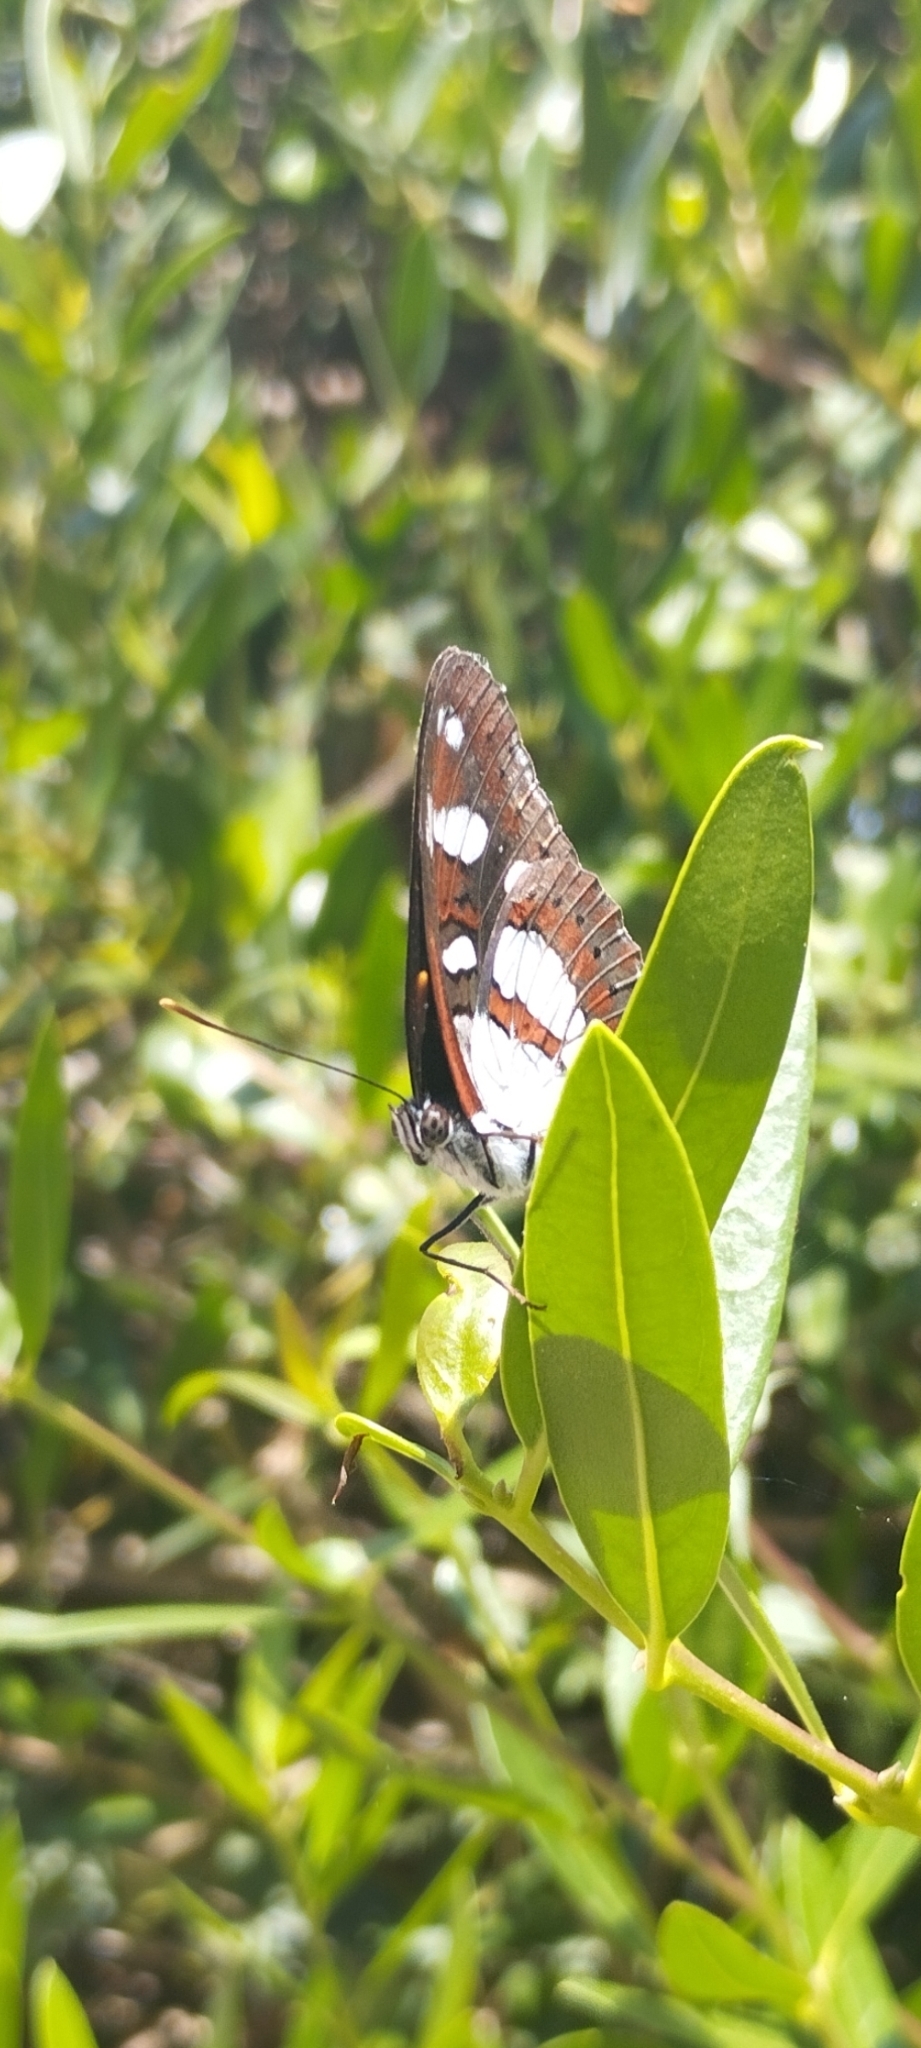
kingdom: Animalia
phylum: Arthropoda
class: Insecta
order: Lepidoptera
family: Nymphalidae
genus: Limenitis
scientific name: Limenitis reducta
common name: Southern white admiral
